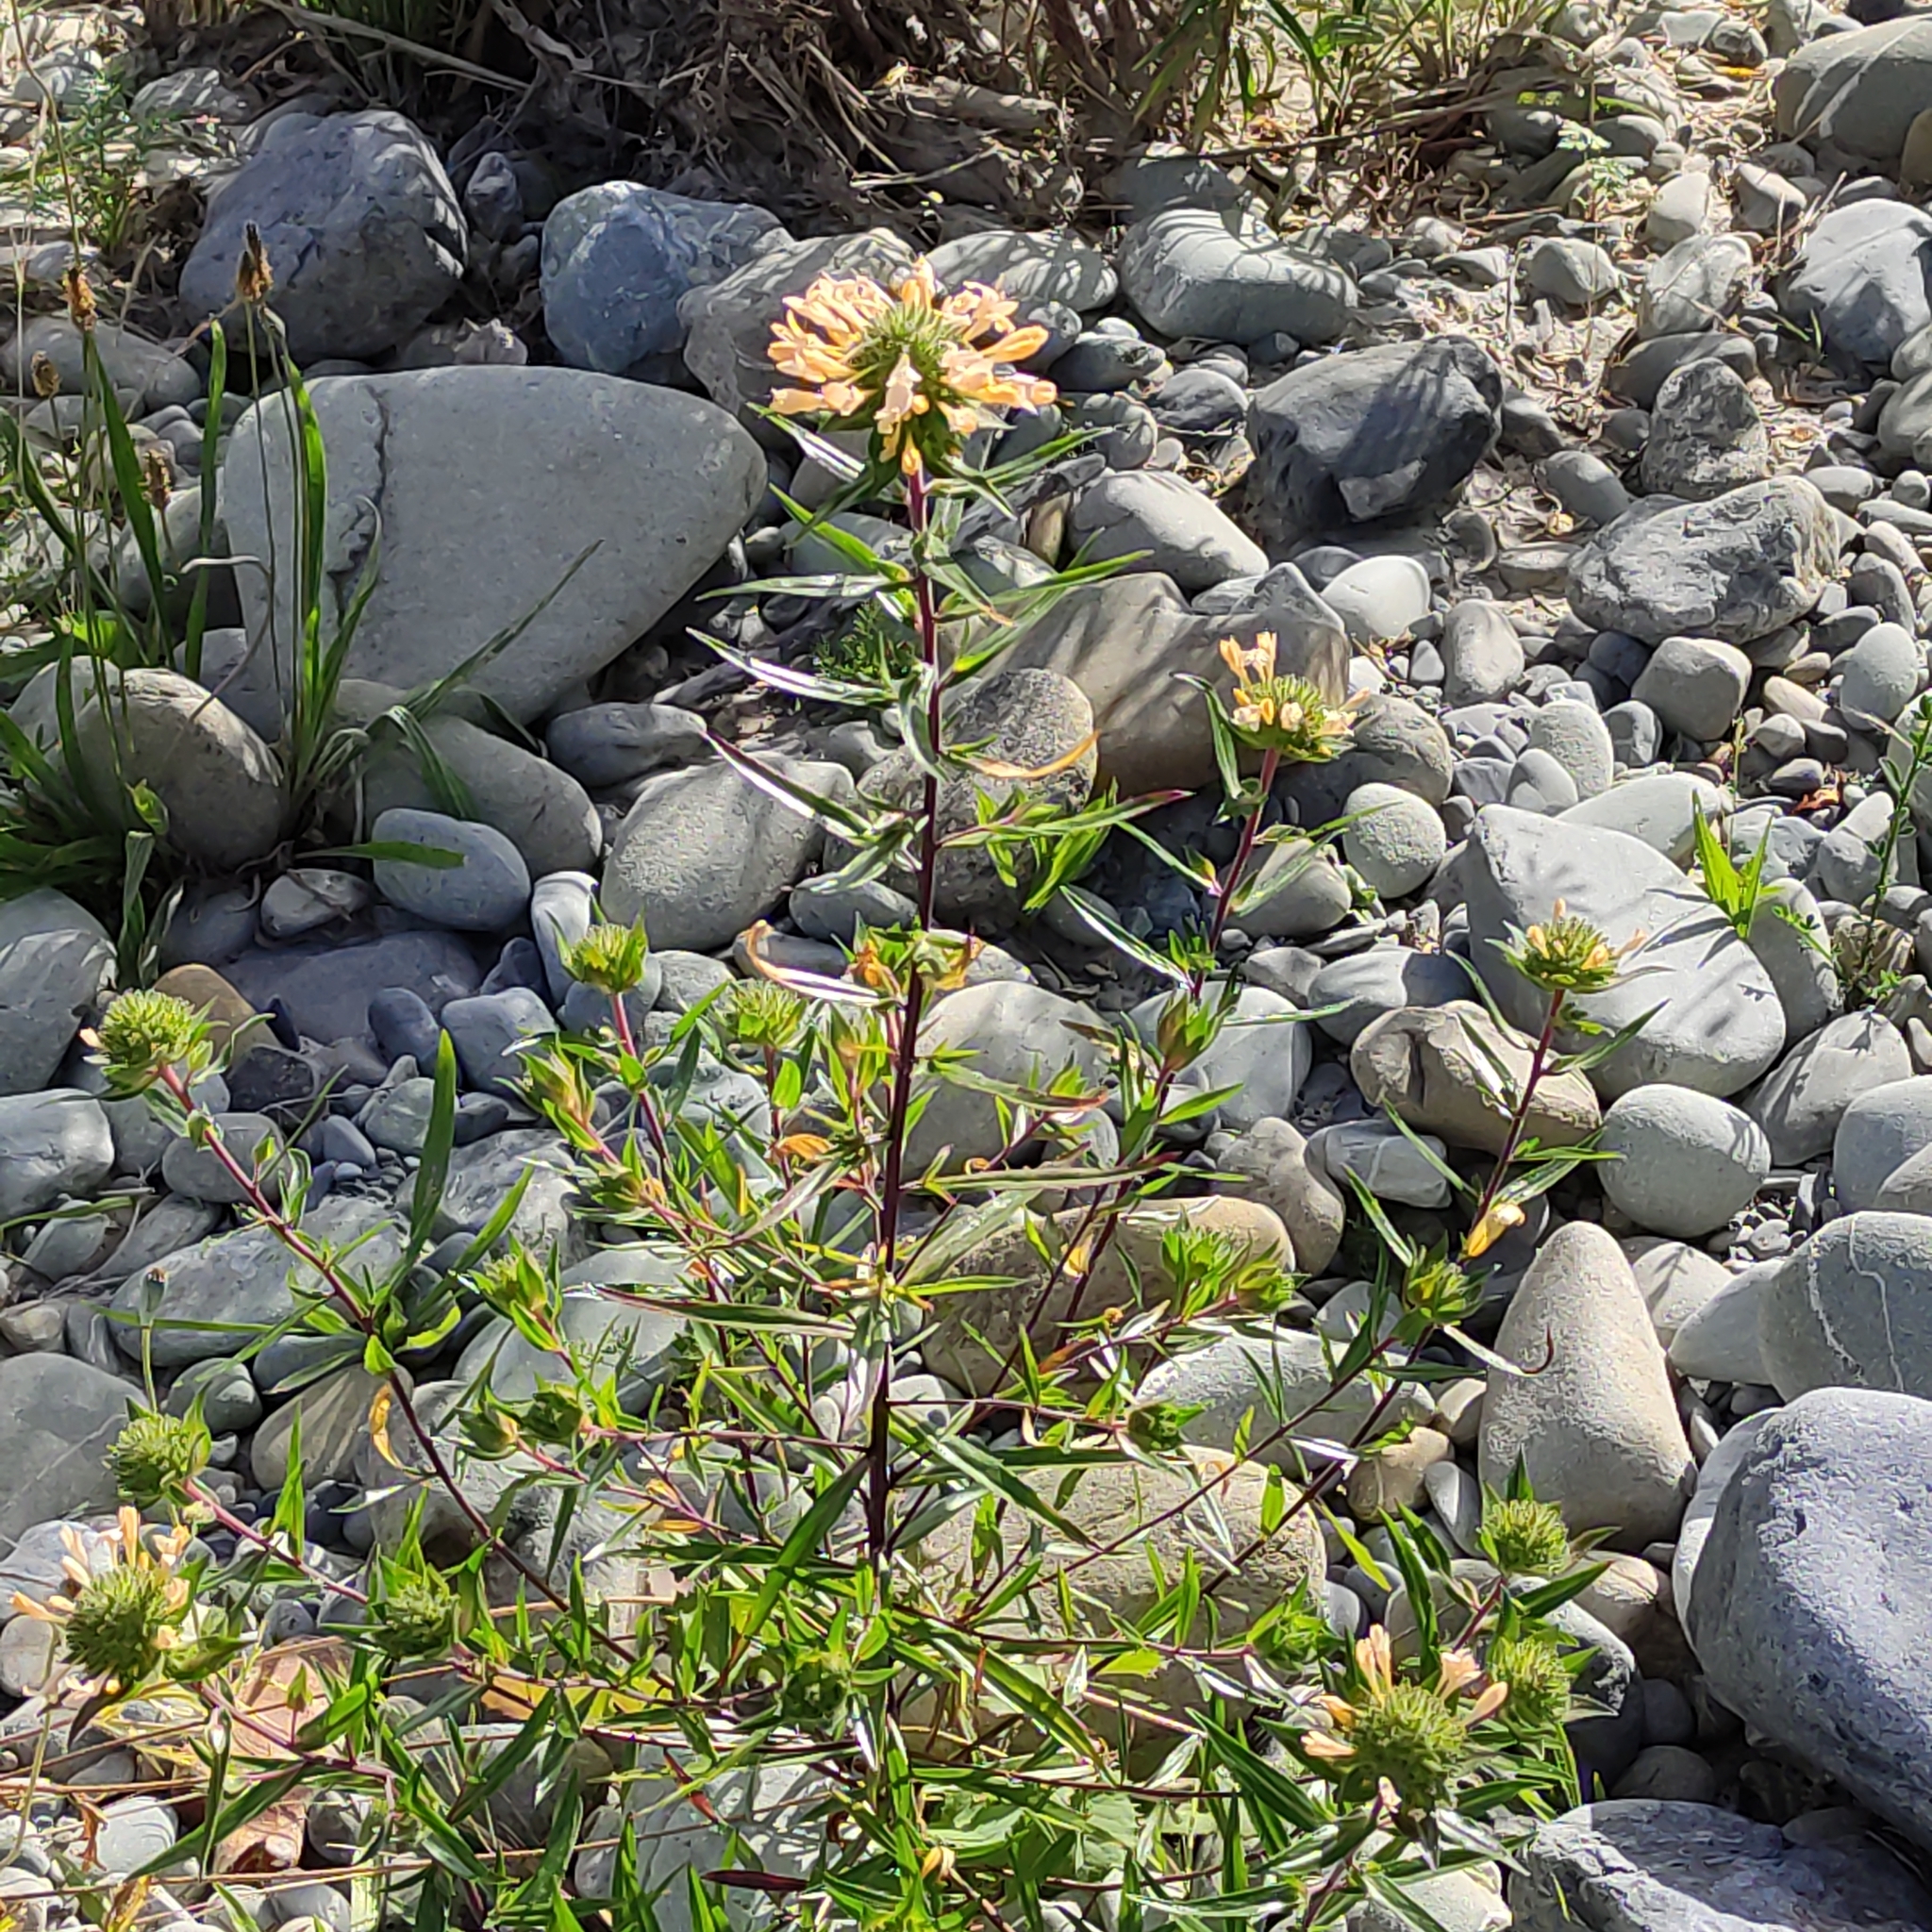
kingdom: Plantae
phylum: Tracheophyta
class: Magnoliopsida
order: Ericales
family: Polemoniaceae
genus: Collomia
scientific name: Collomia grandiflora
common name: California strawflower
